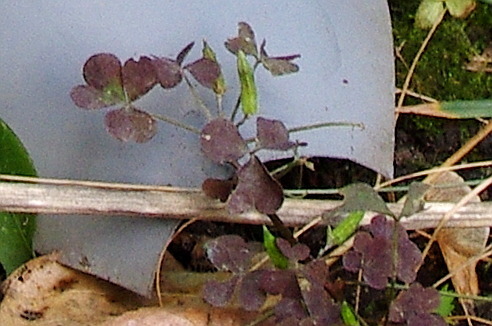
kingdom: Plantae
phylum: Tracheophyta
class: Magnoliopsida
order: Oxalidales
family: Oxalidaceae
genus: Oxalis
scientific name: Oxalis stricta
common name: Upright yellow-sorrel
